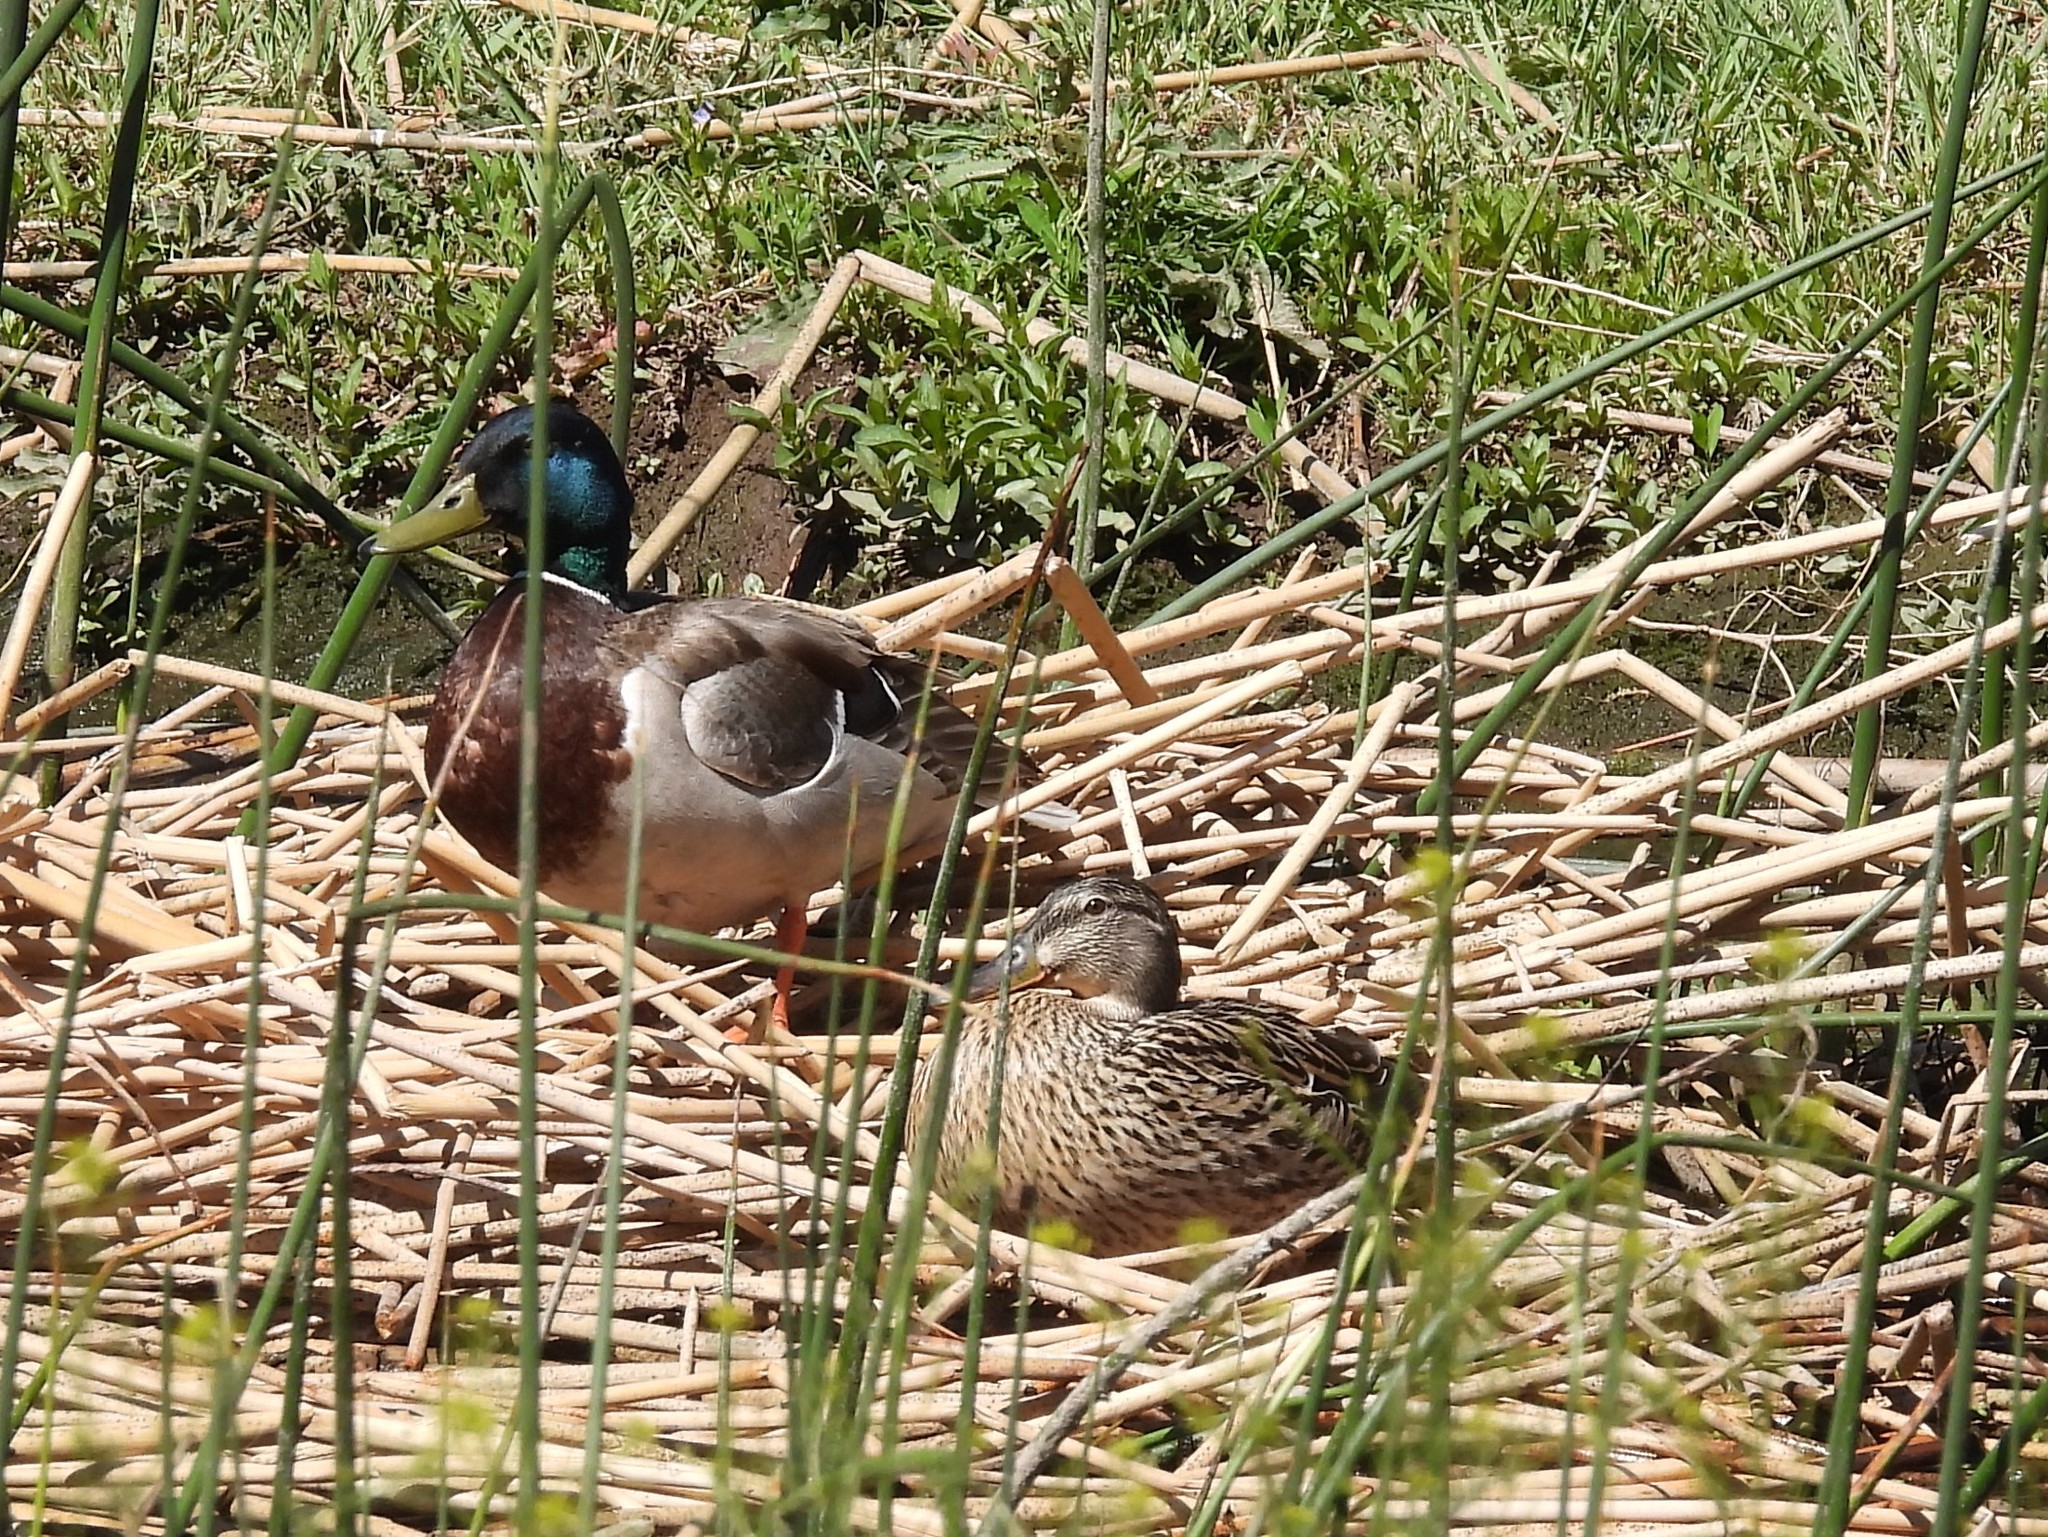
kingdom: Animalia
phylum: Chordata
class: Aves
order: Anseriformes
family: Anatidae
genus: Anas
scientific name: Anas platyrhynchos
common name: Mallard
